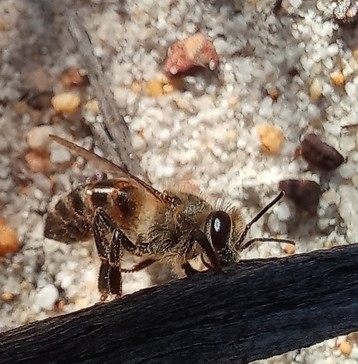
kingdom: Animalia
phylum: Arthropoda
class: Insecta
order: Hymenoptera
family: Apidae
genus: Apis
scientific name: Apis mellifera
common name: Honey bee
